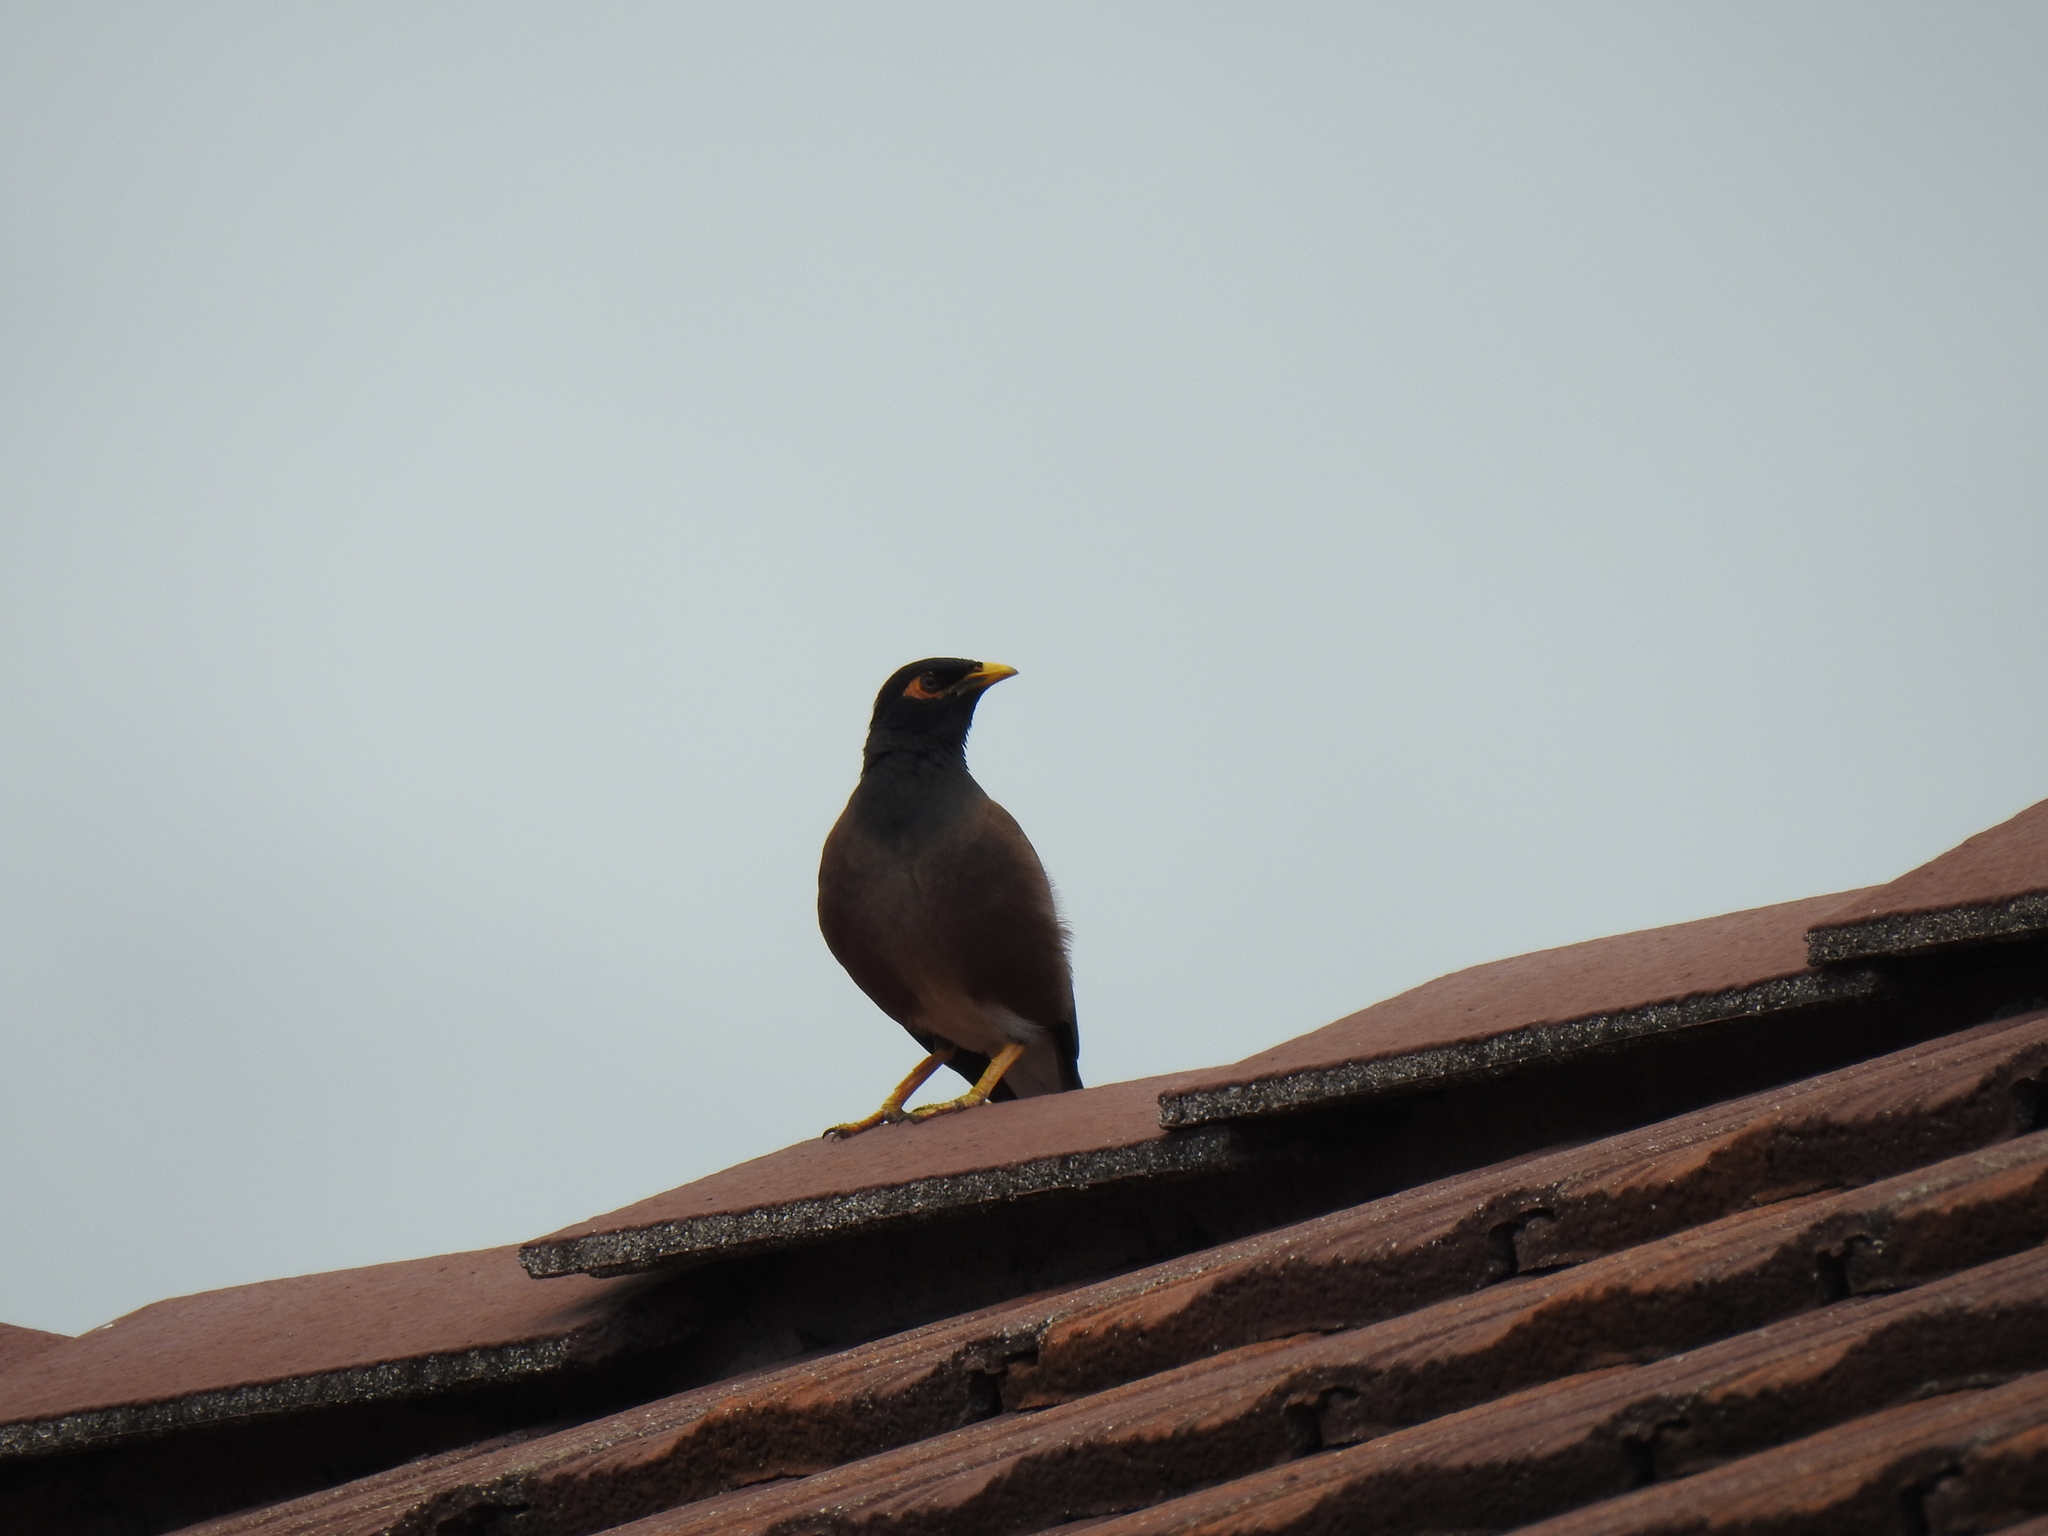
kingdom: Animalia
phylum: Chordata
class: Aves
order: Passeriformes
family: Sturnidae
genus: Acridotheres
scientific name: Acridotheres tristis
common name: Common myna
